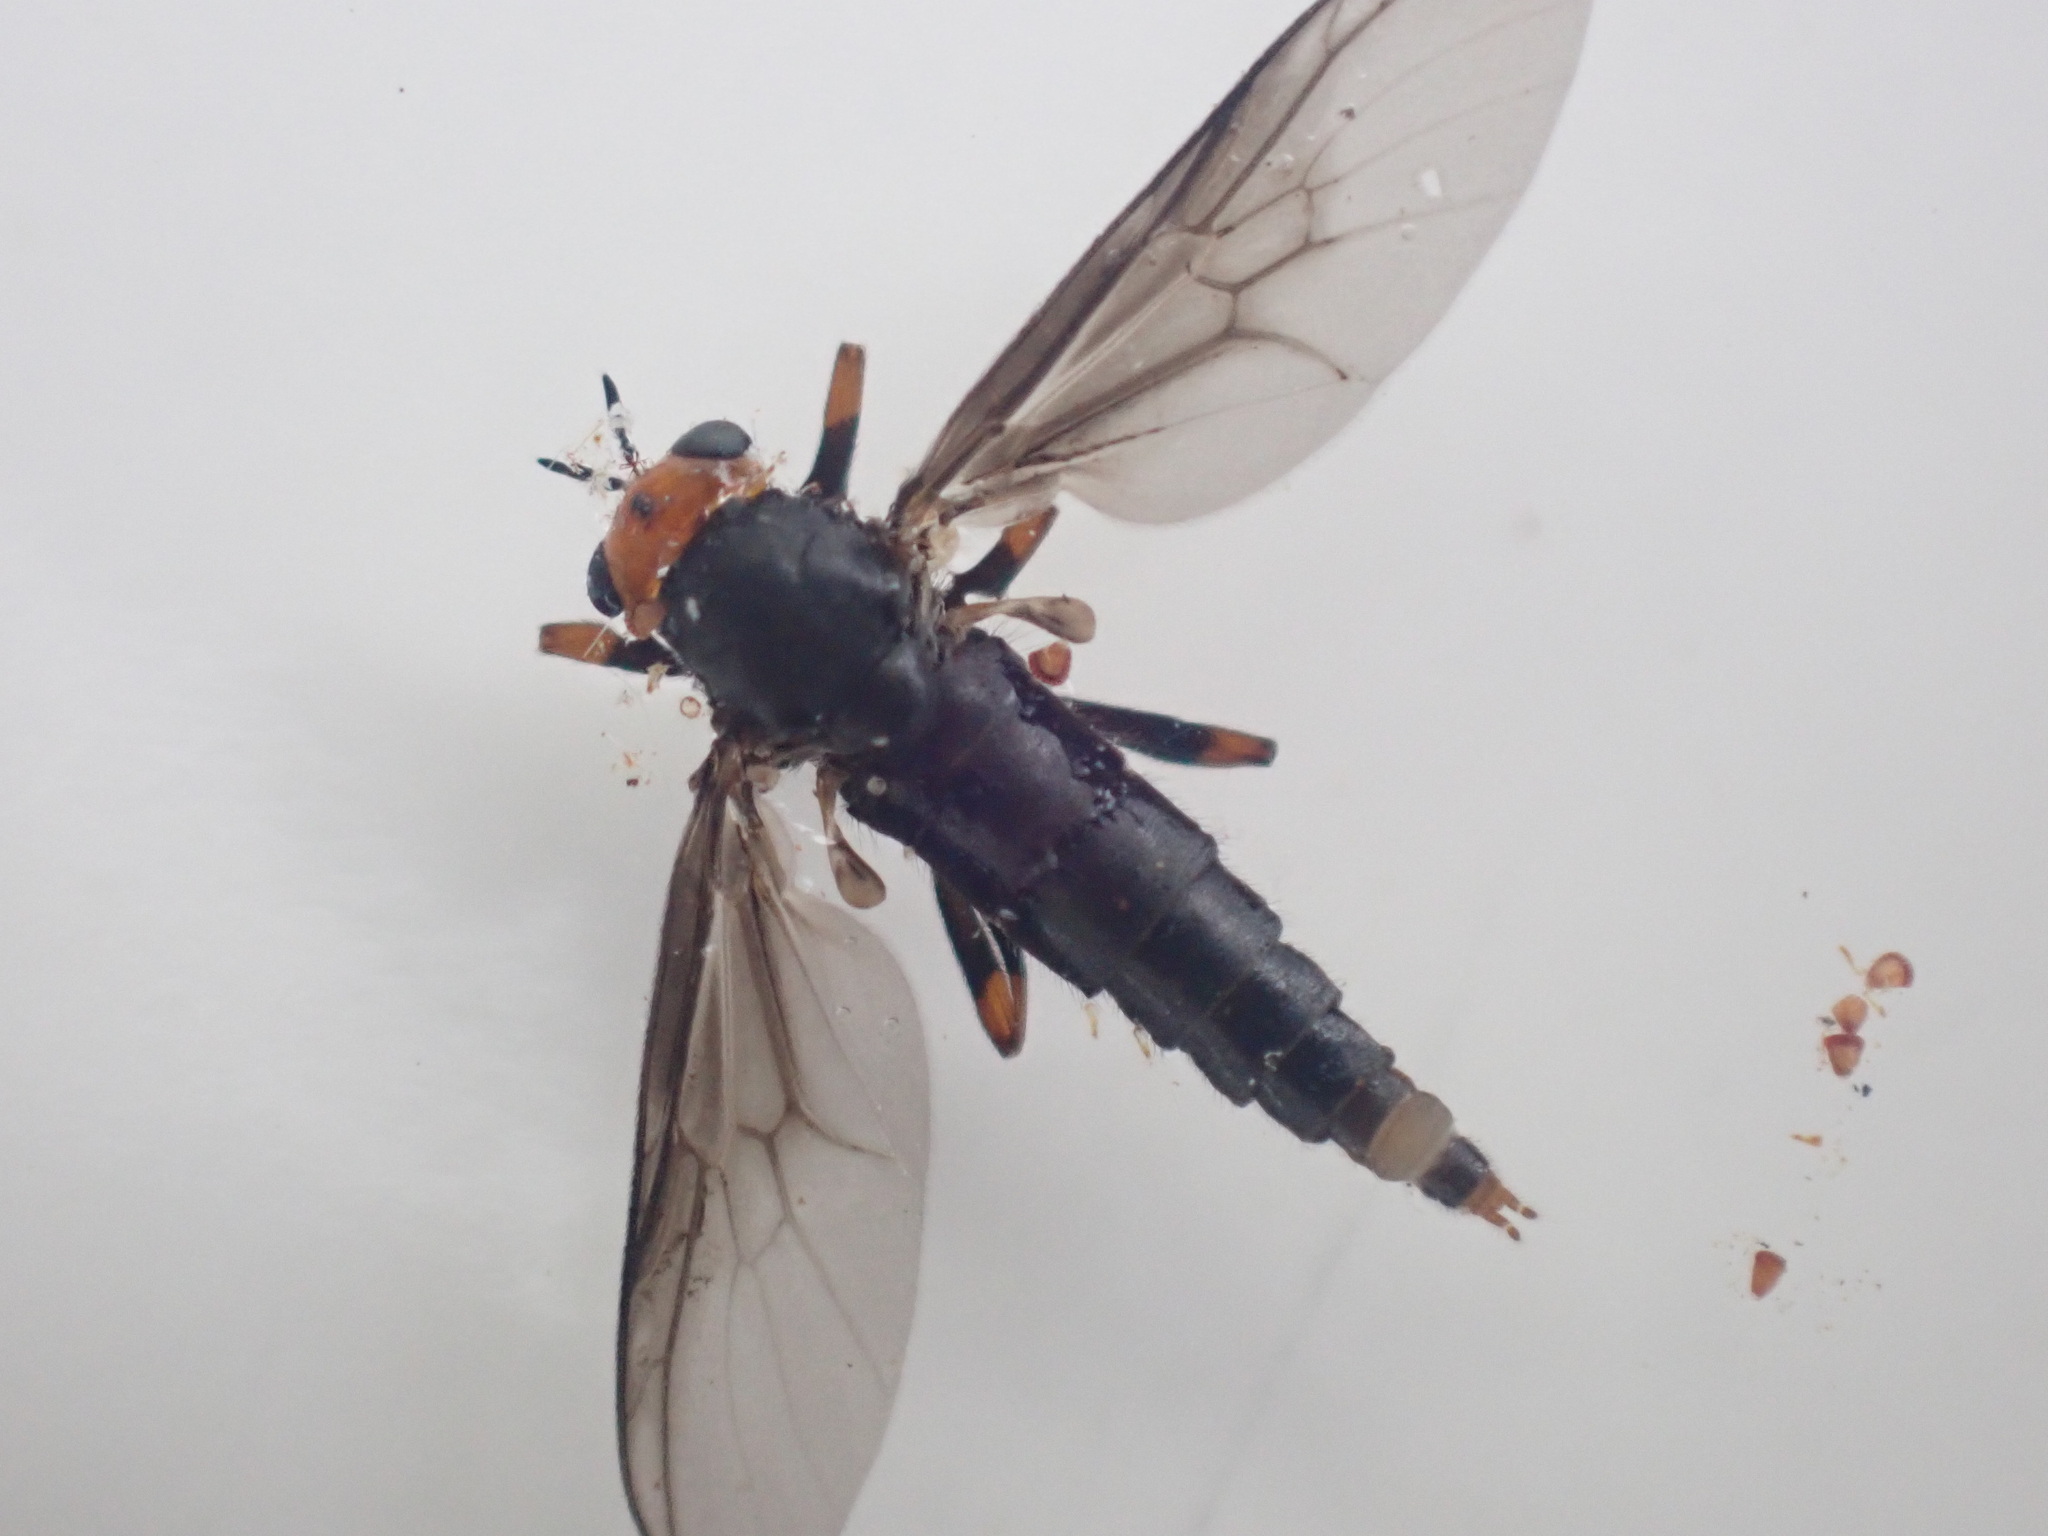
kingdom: Animalia
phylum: Arthropoda
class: Insecta
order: Diptera
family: Stratiomyidae
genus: Inopus
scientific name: Inopus rubriceps
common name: Soldier fly
